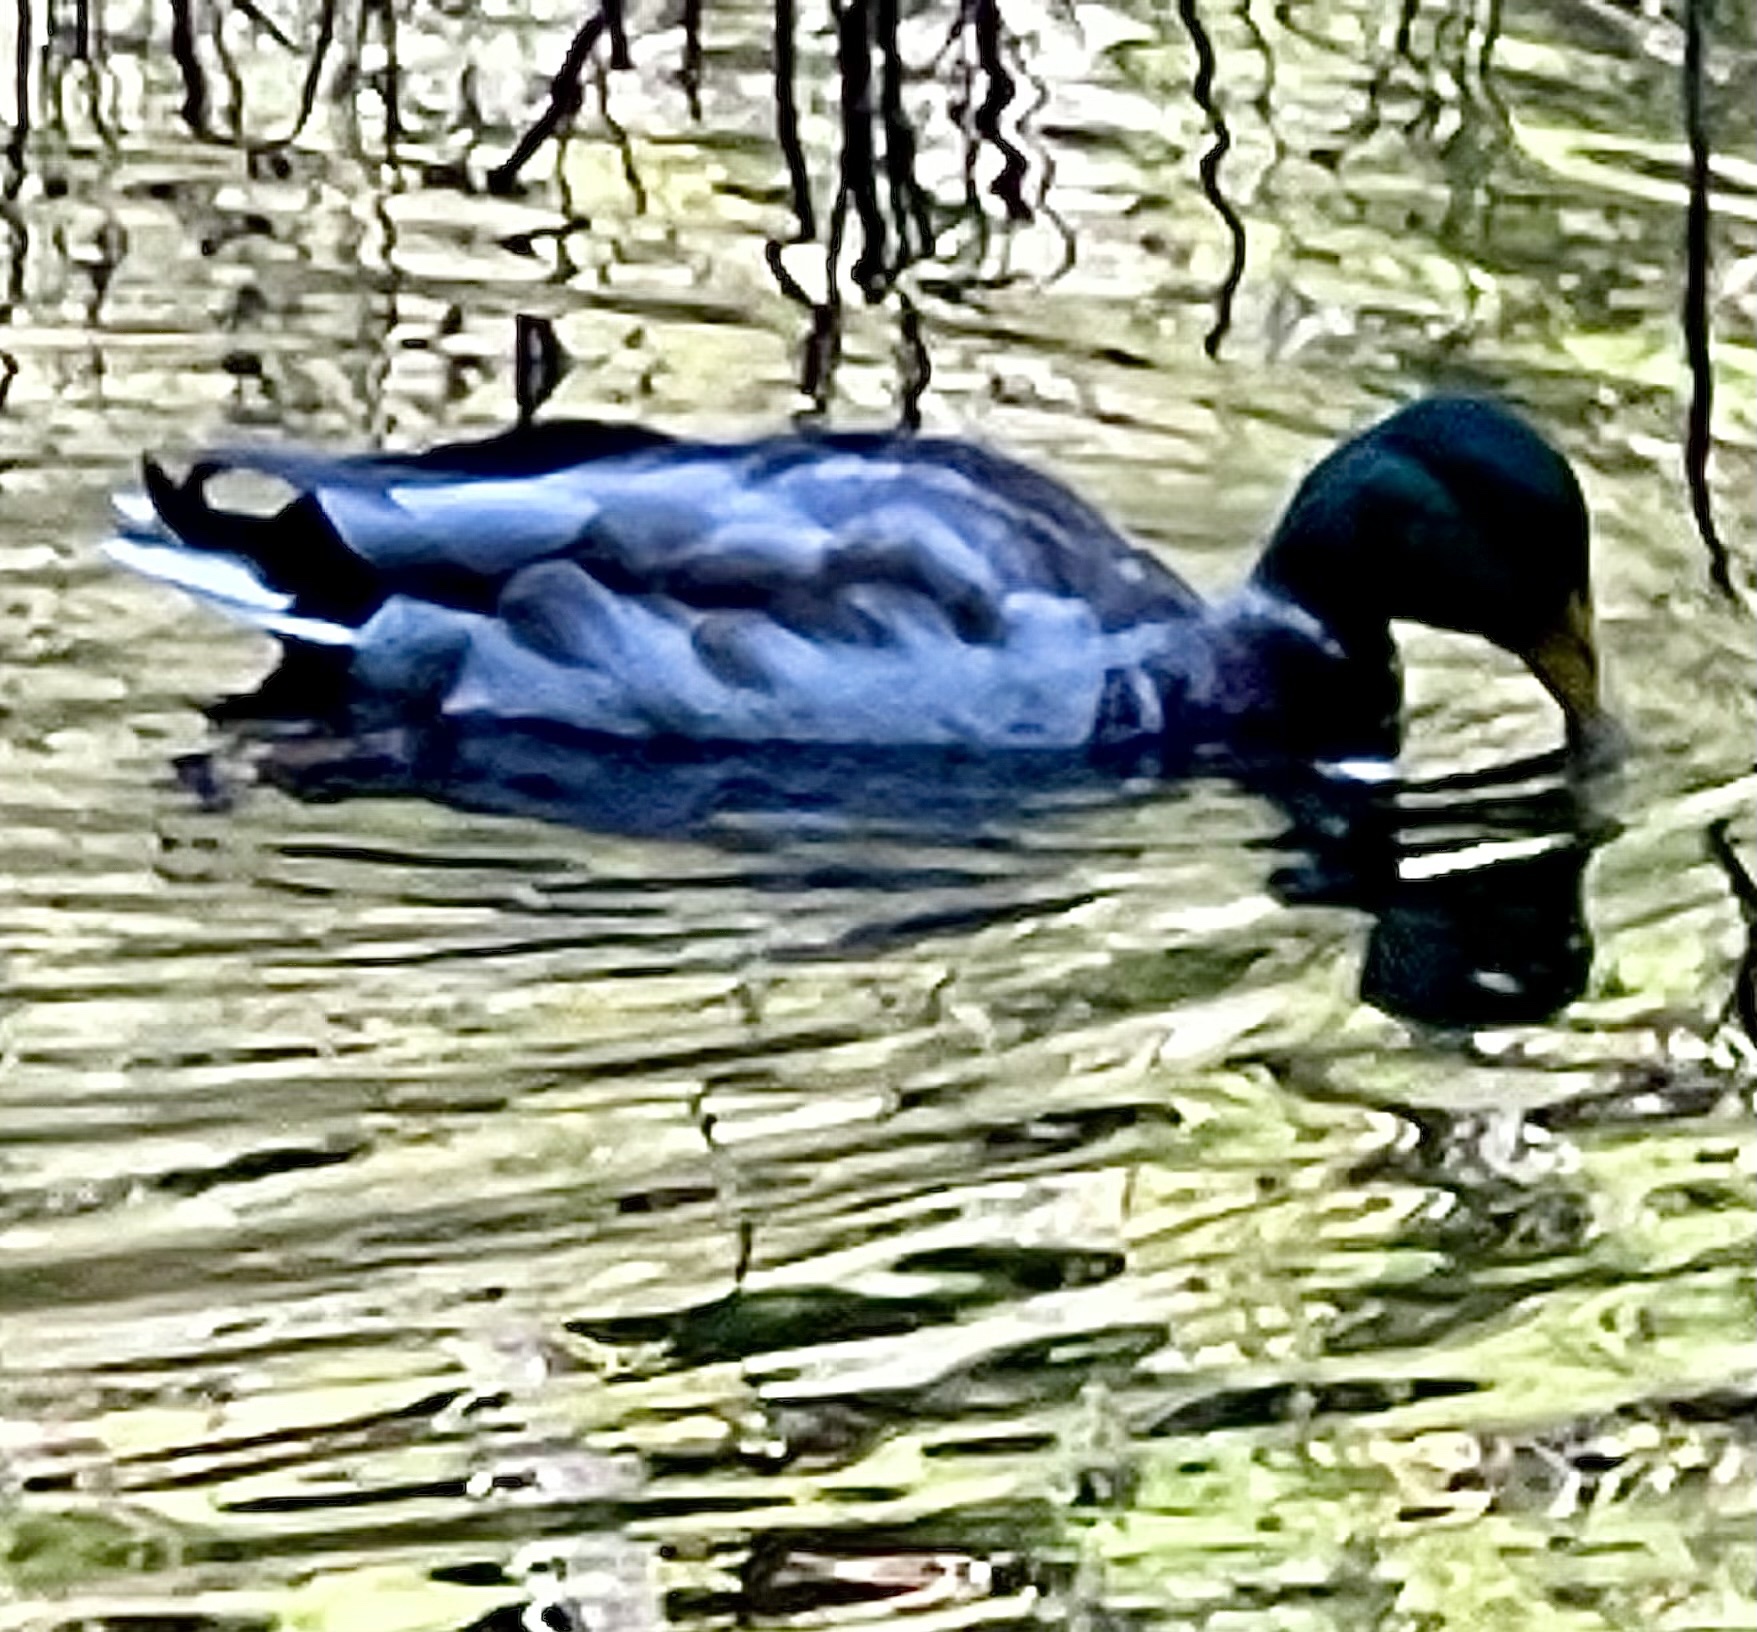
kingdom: Animalia
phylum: Chordata
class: Aves
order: Anseriformes
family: Anatidae
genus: Anas
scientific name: Anas platyrhynchos
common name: Mallard
